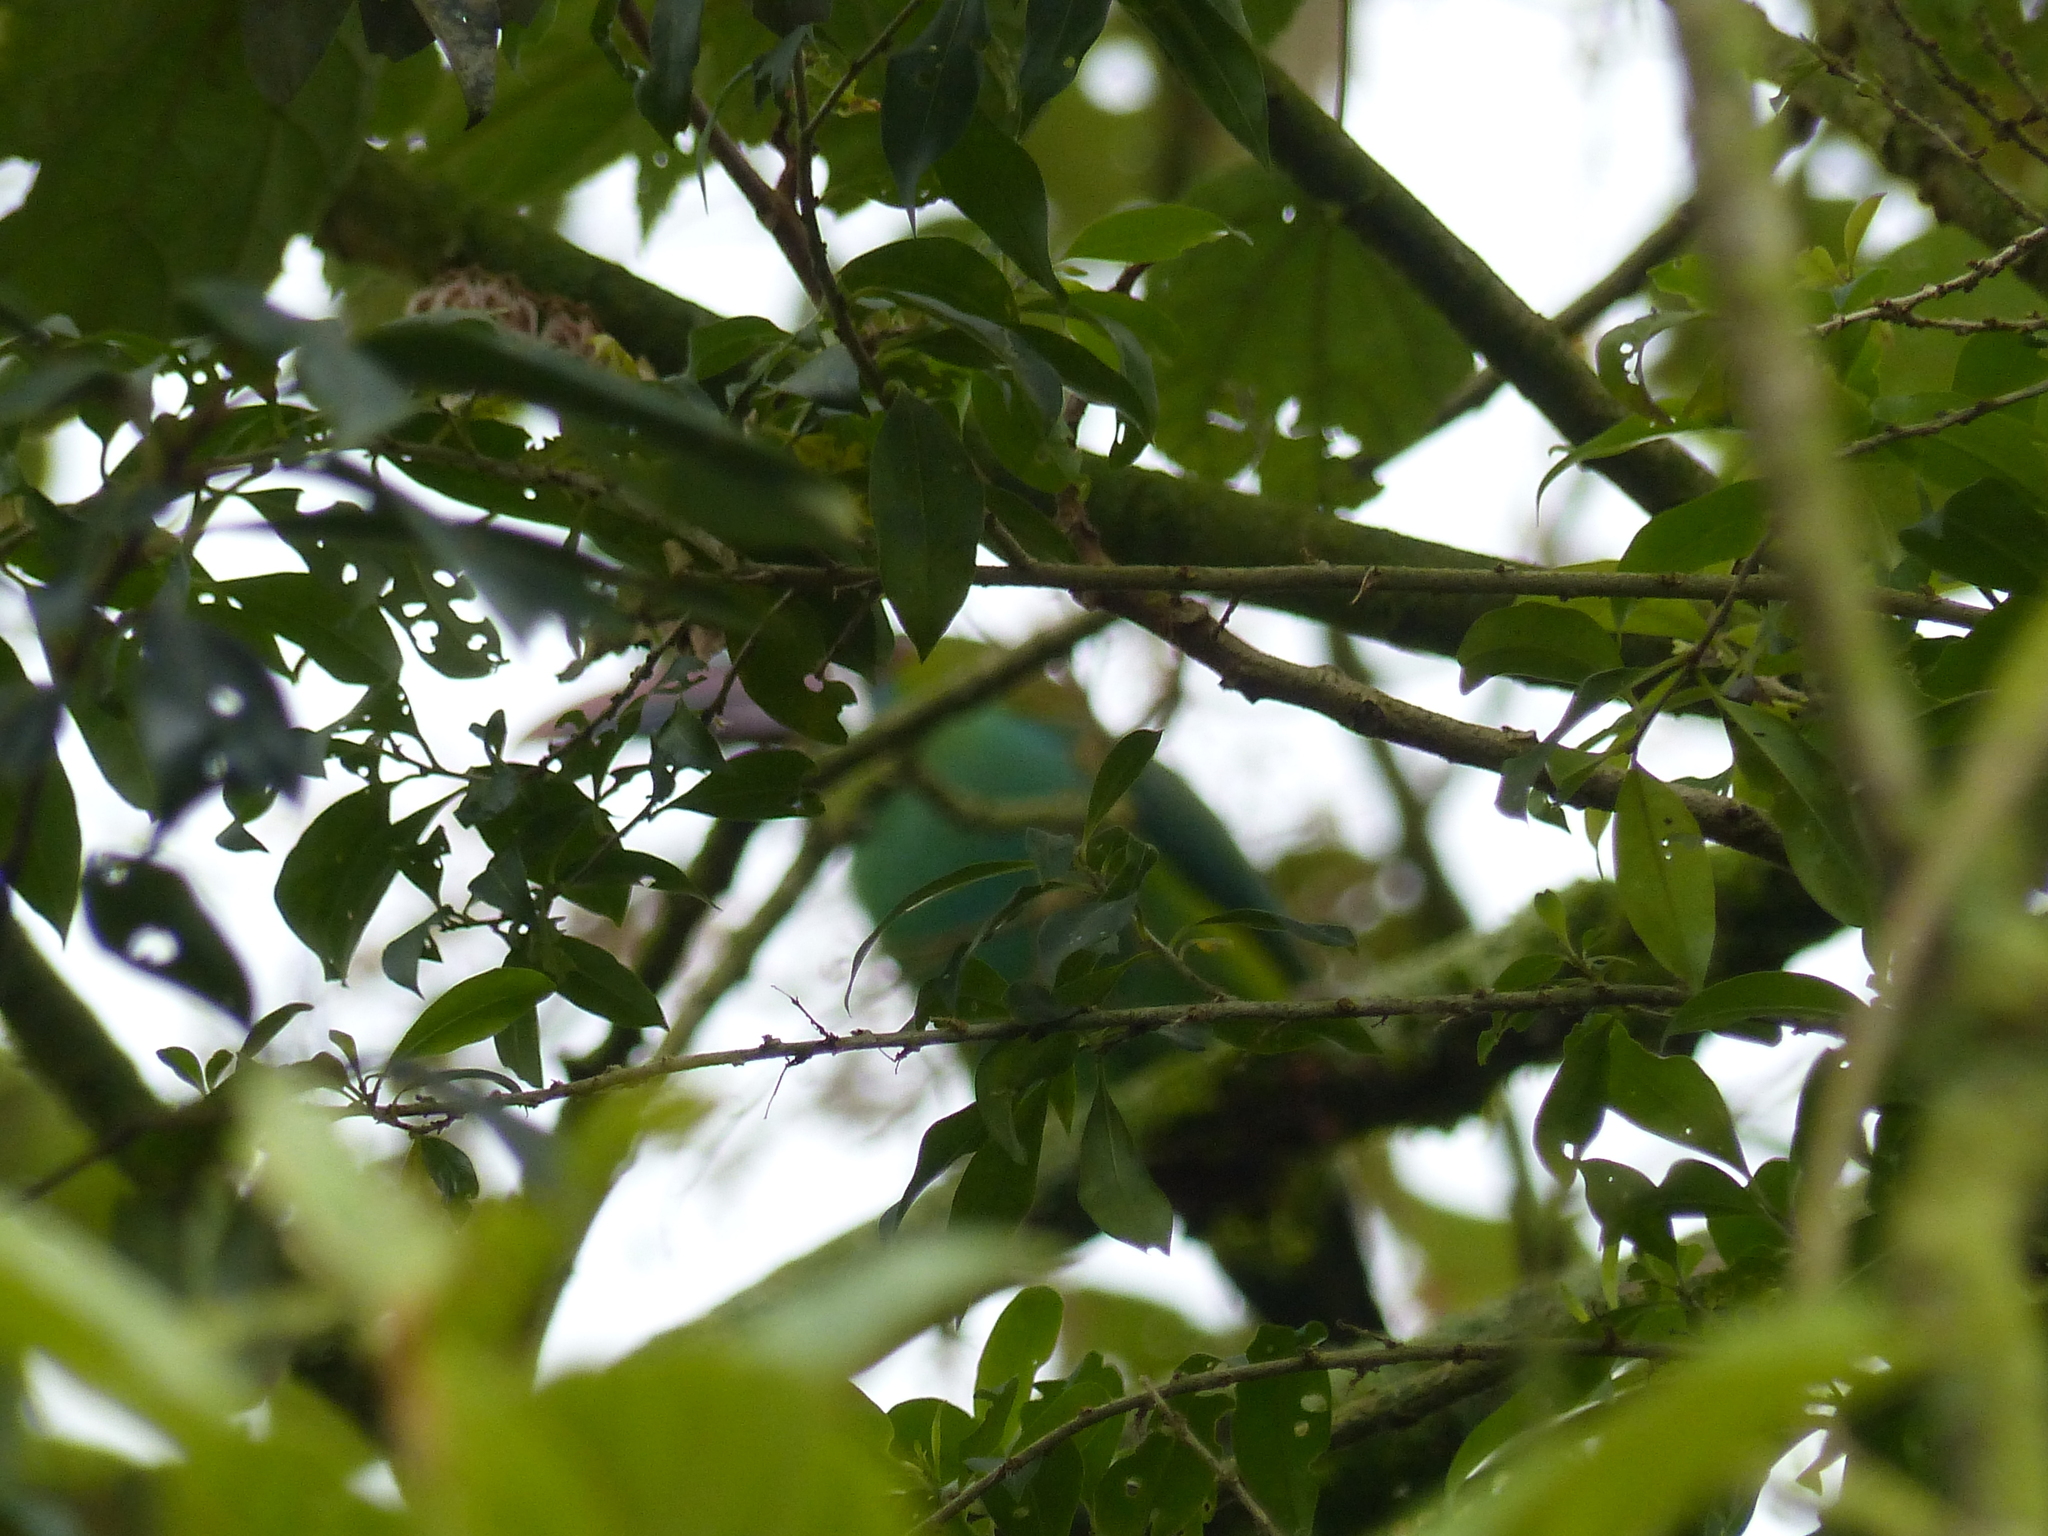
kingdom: Animalia
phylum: Chordata
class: Aves
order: Piciformes
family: Ramphastidae
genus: Aulacorhynchus
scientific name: Aulacorhynchus haematopygus
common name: Crimson-rumped toucanet
